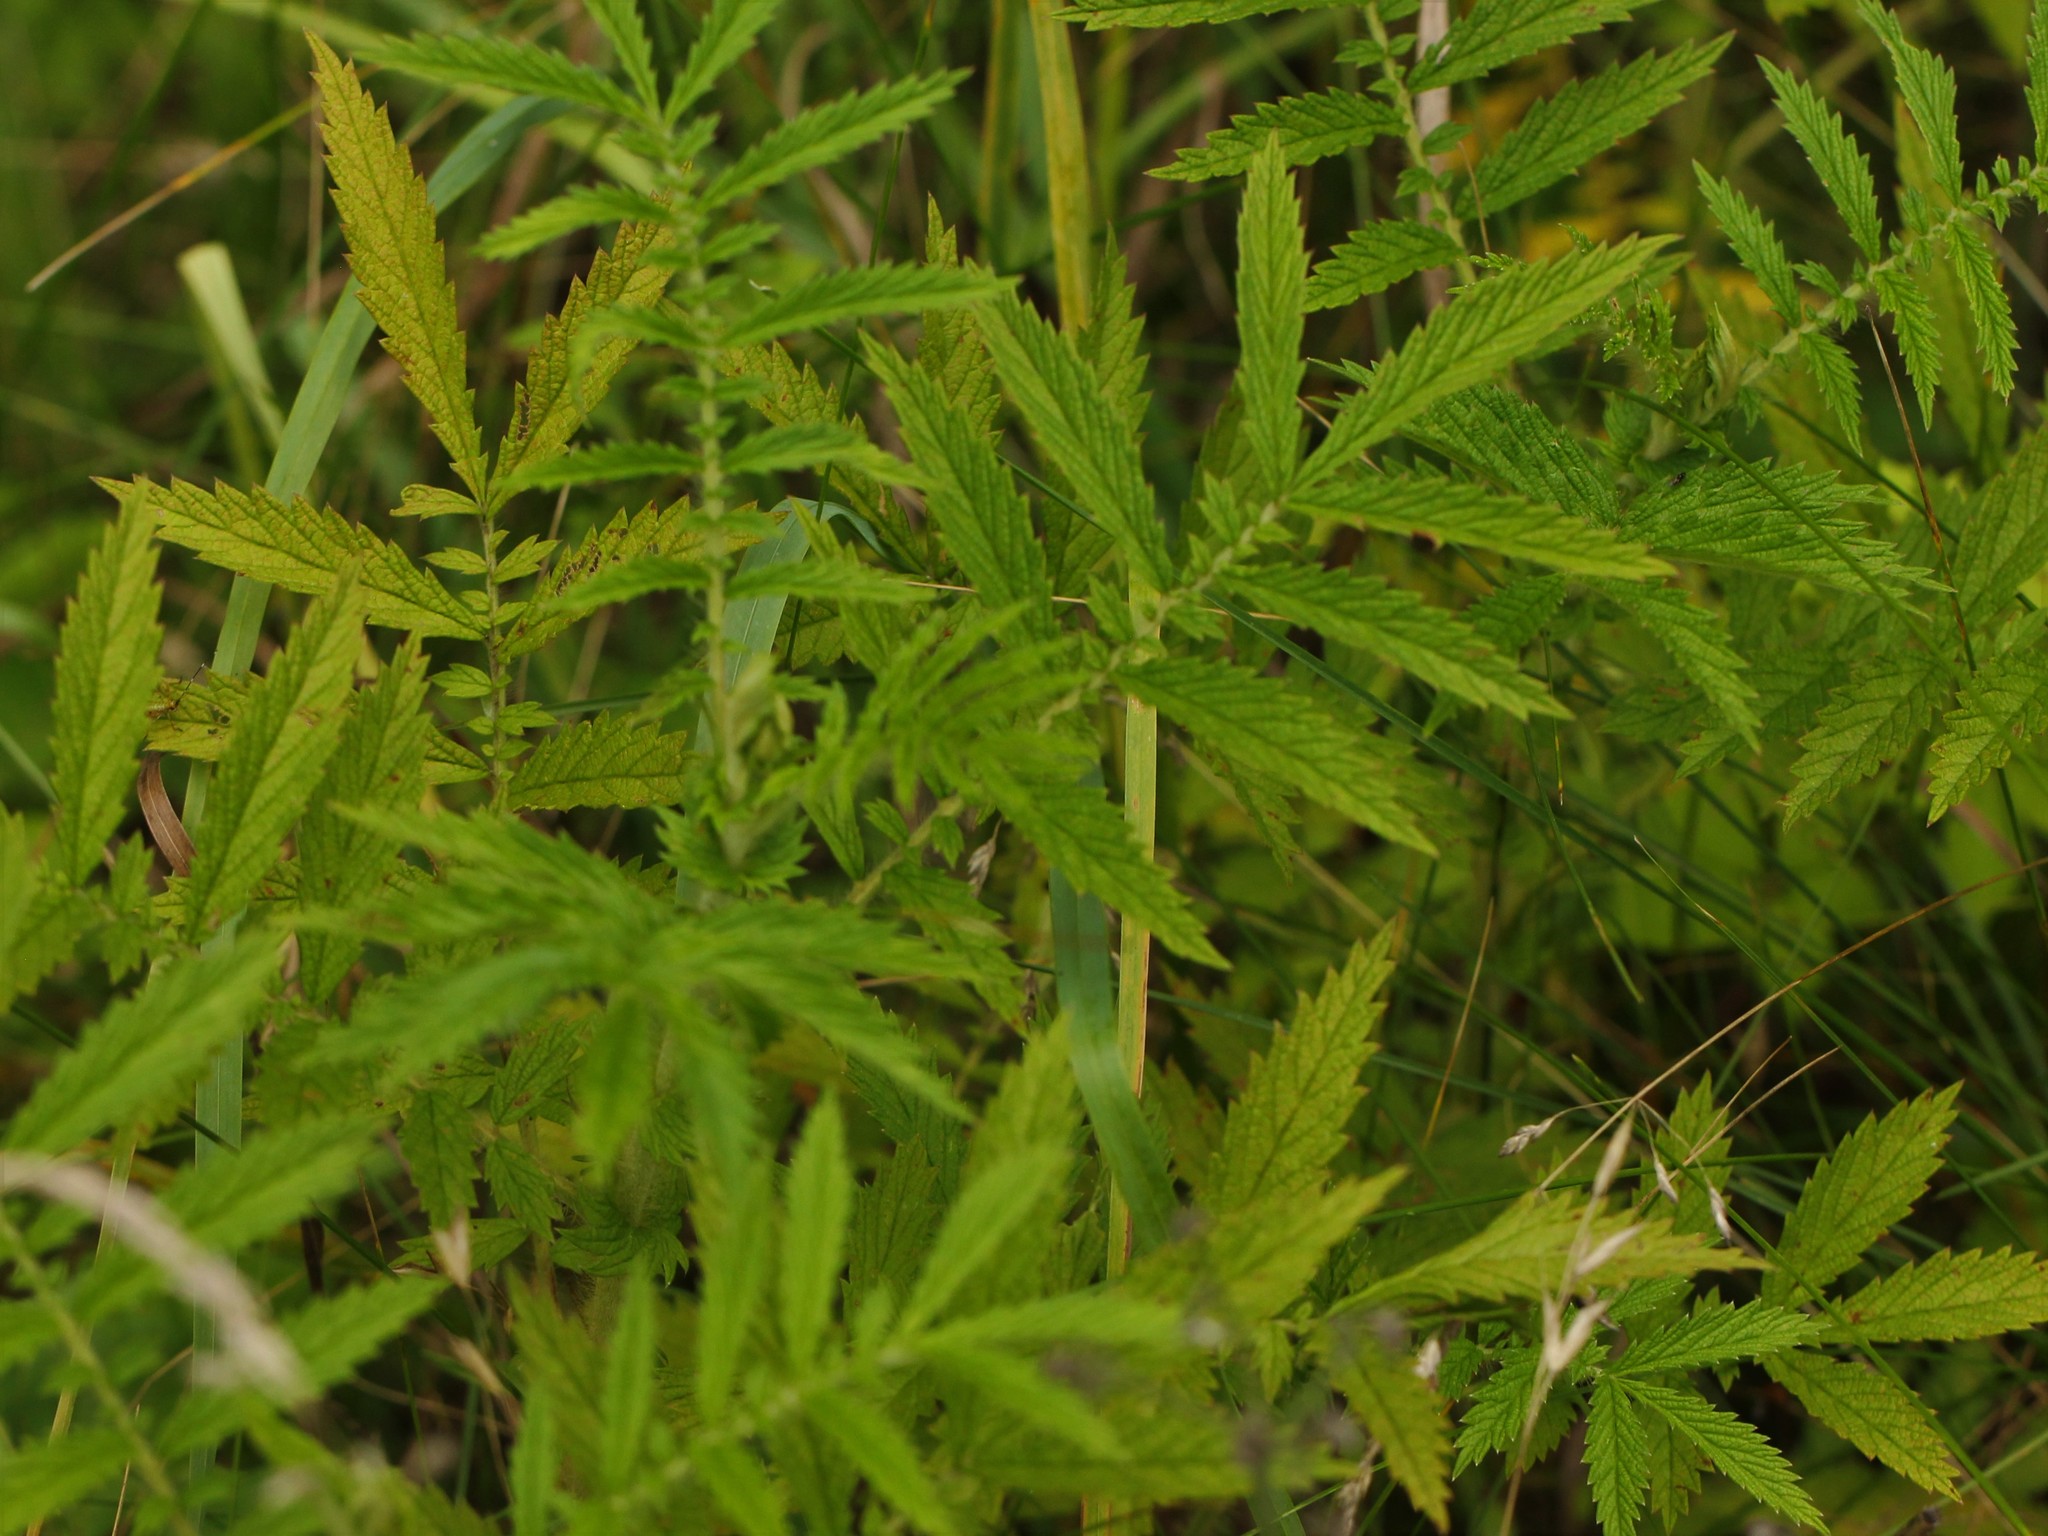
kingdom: Plantae
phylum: Tracheophyta
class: Magnoliopsida
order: Rosales
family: Rosaceae
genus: Agrimonia
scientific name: Agrimonia parviflora
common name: Harvest-lice
